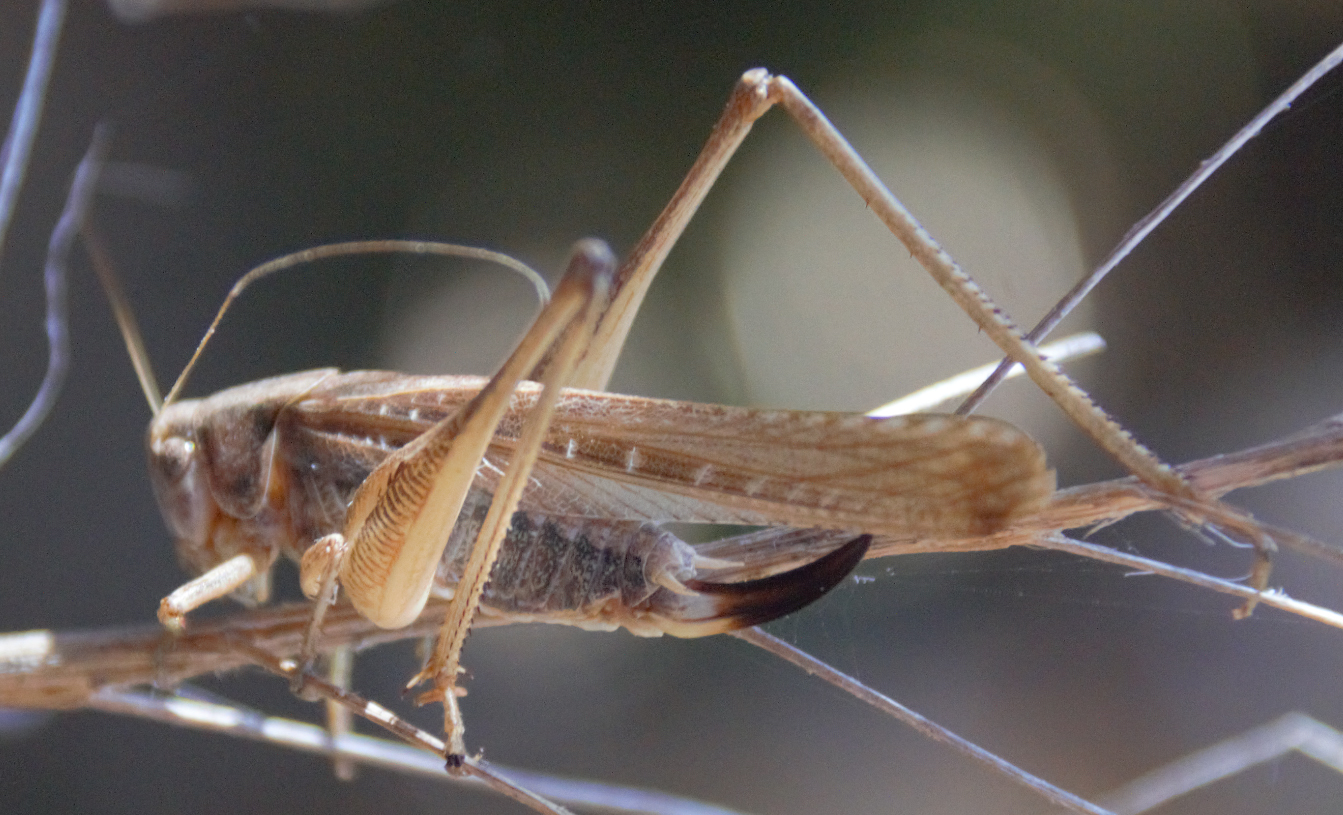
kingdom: Animalia
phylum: Arthropoda
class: Insecta
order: Orthoptera
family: Tettigoniidae
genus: Platycleis
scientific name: Platycleis sabulosa
